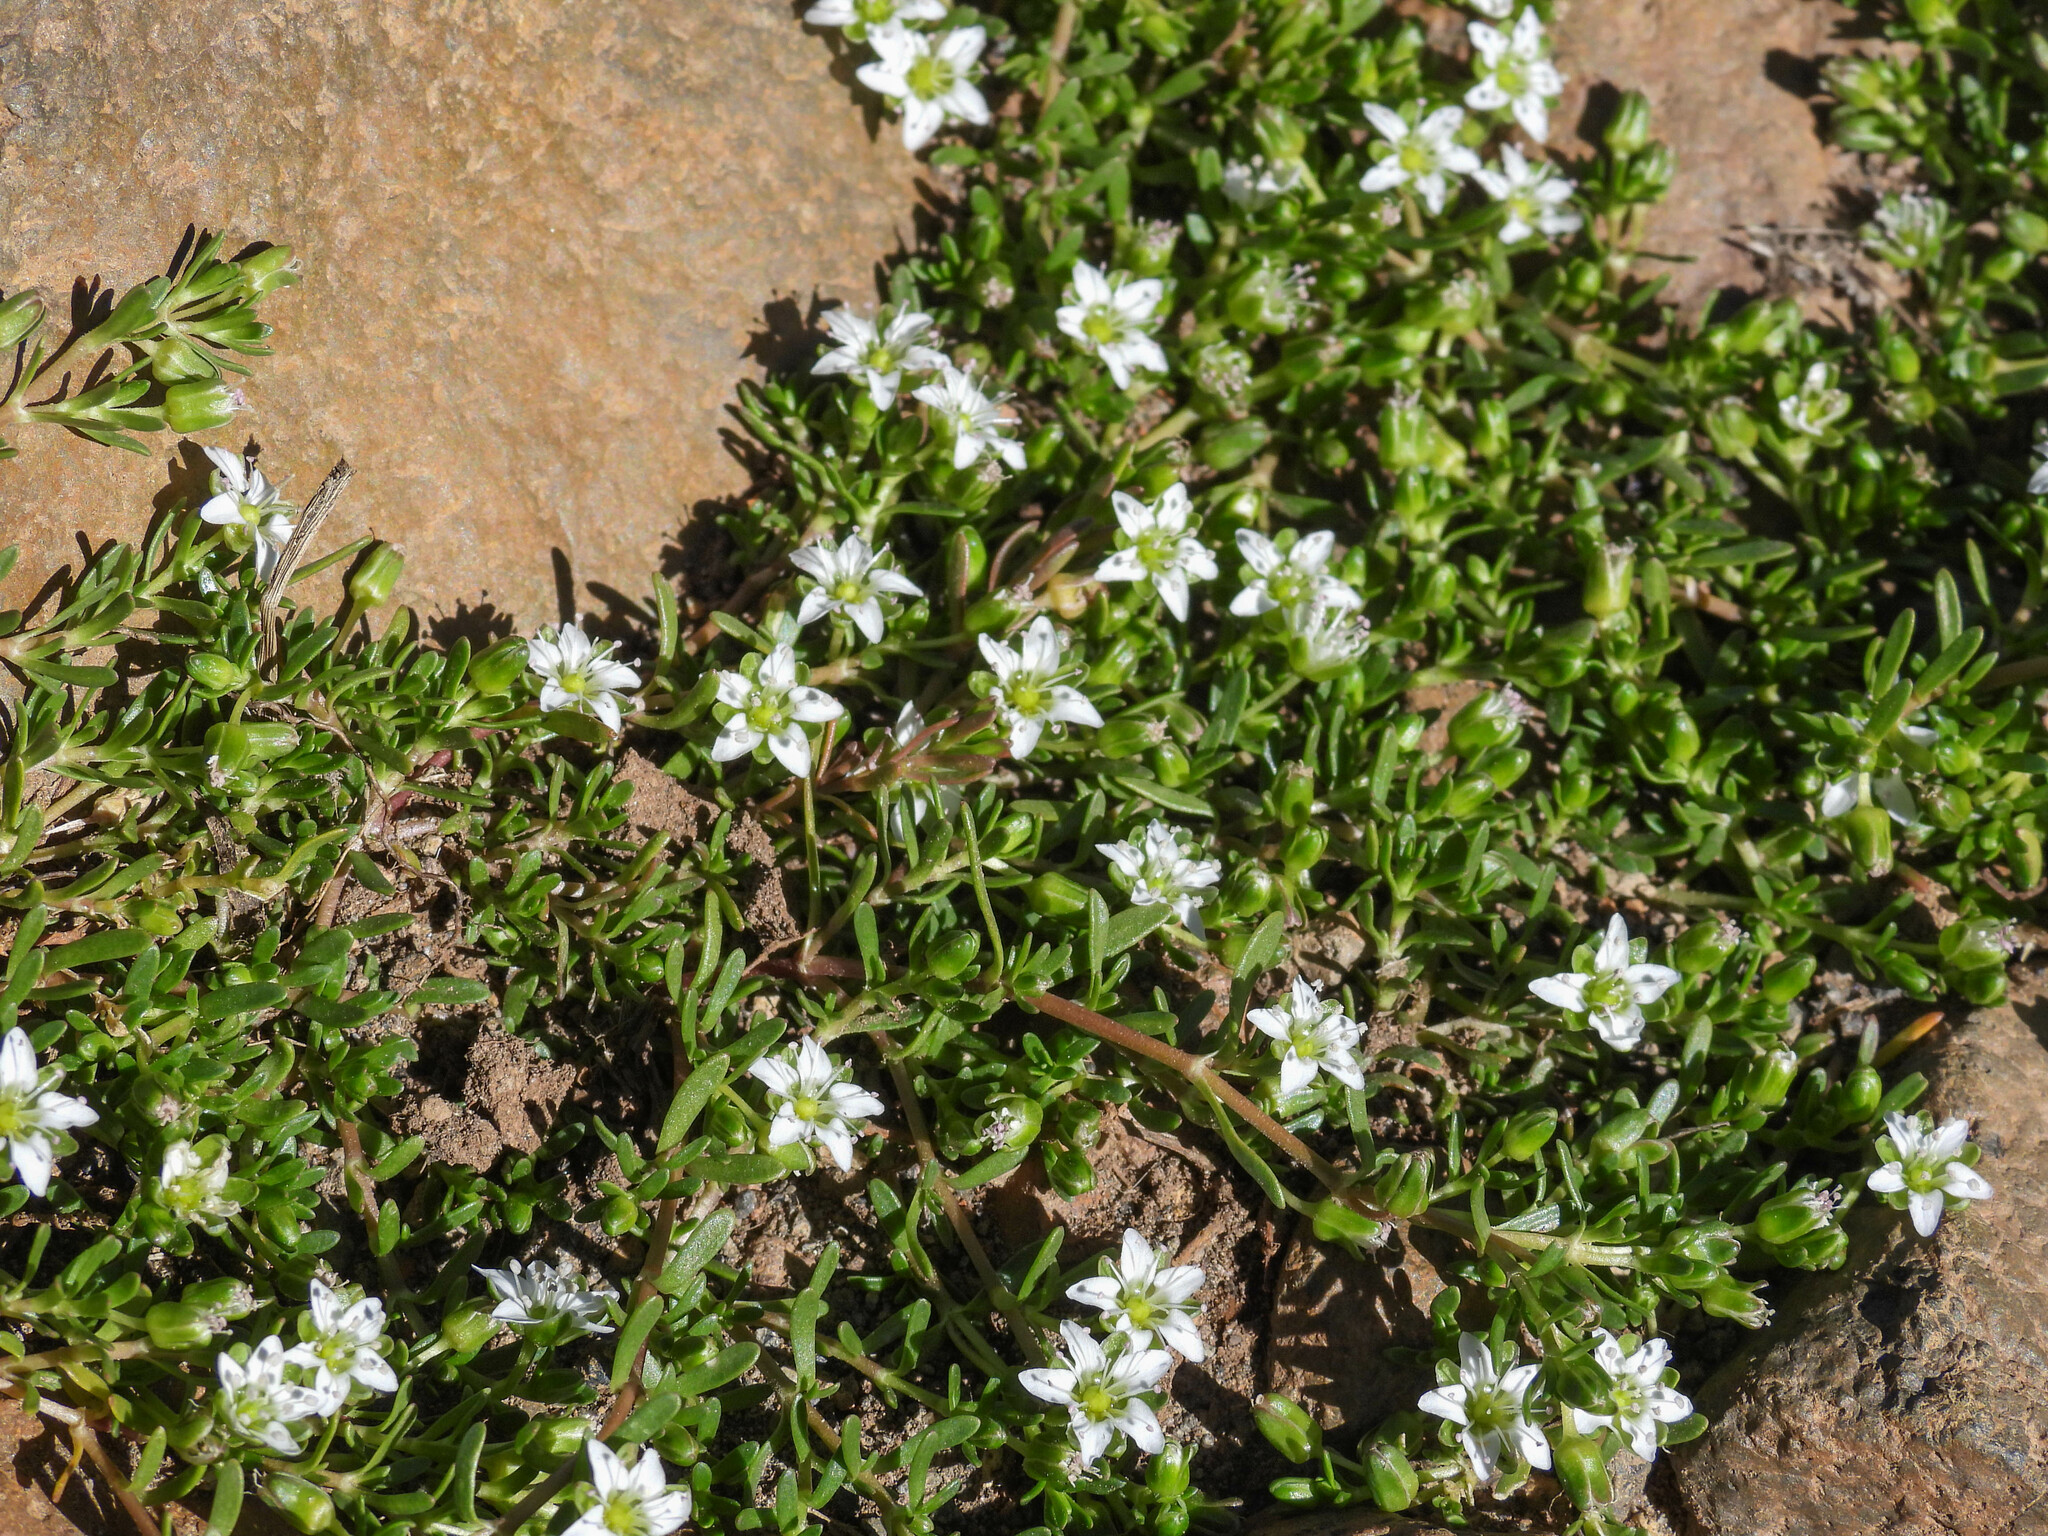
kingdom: Plantae
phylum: Tracheophyta
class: Magnoliopsida
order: Caryophyllales
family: Caryophyllaceae
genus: Arenaria
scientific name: Arenaria serpens
